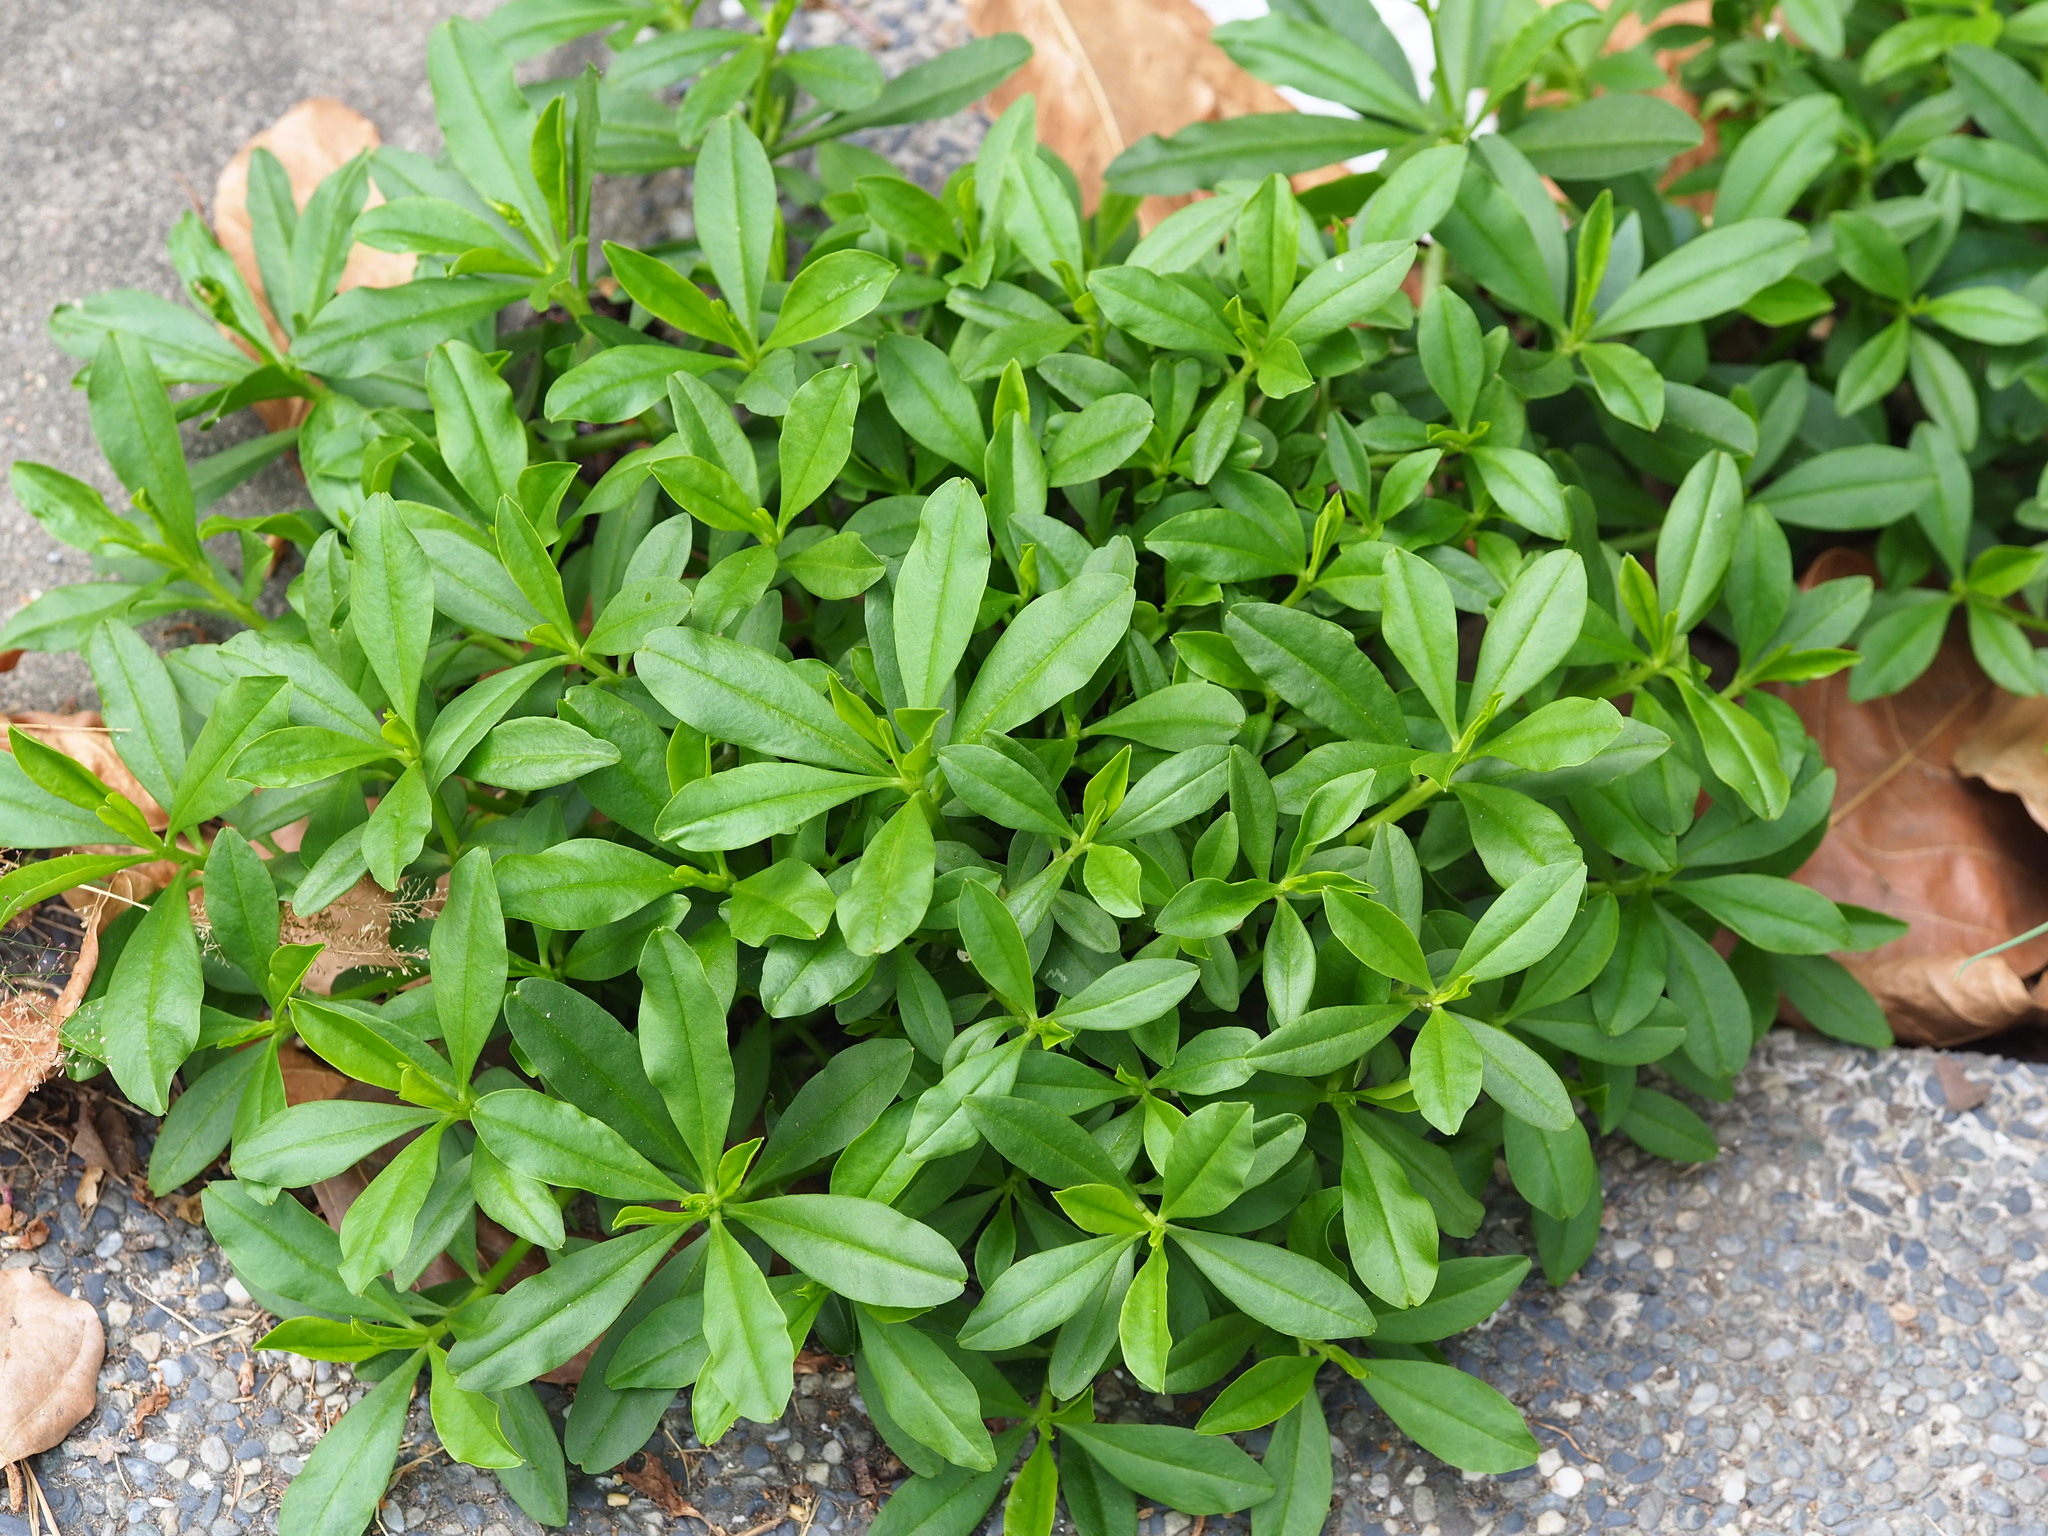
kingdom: Plantae
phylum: Tracheophyta
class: Magnoliopsida
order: Caryophyllales
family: Talinaceae
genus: Talinum
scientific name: Talinum fruticosum
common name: Verdolaga-francesa
